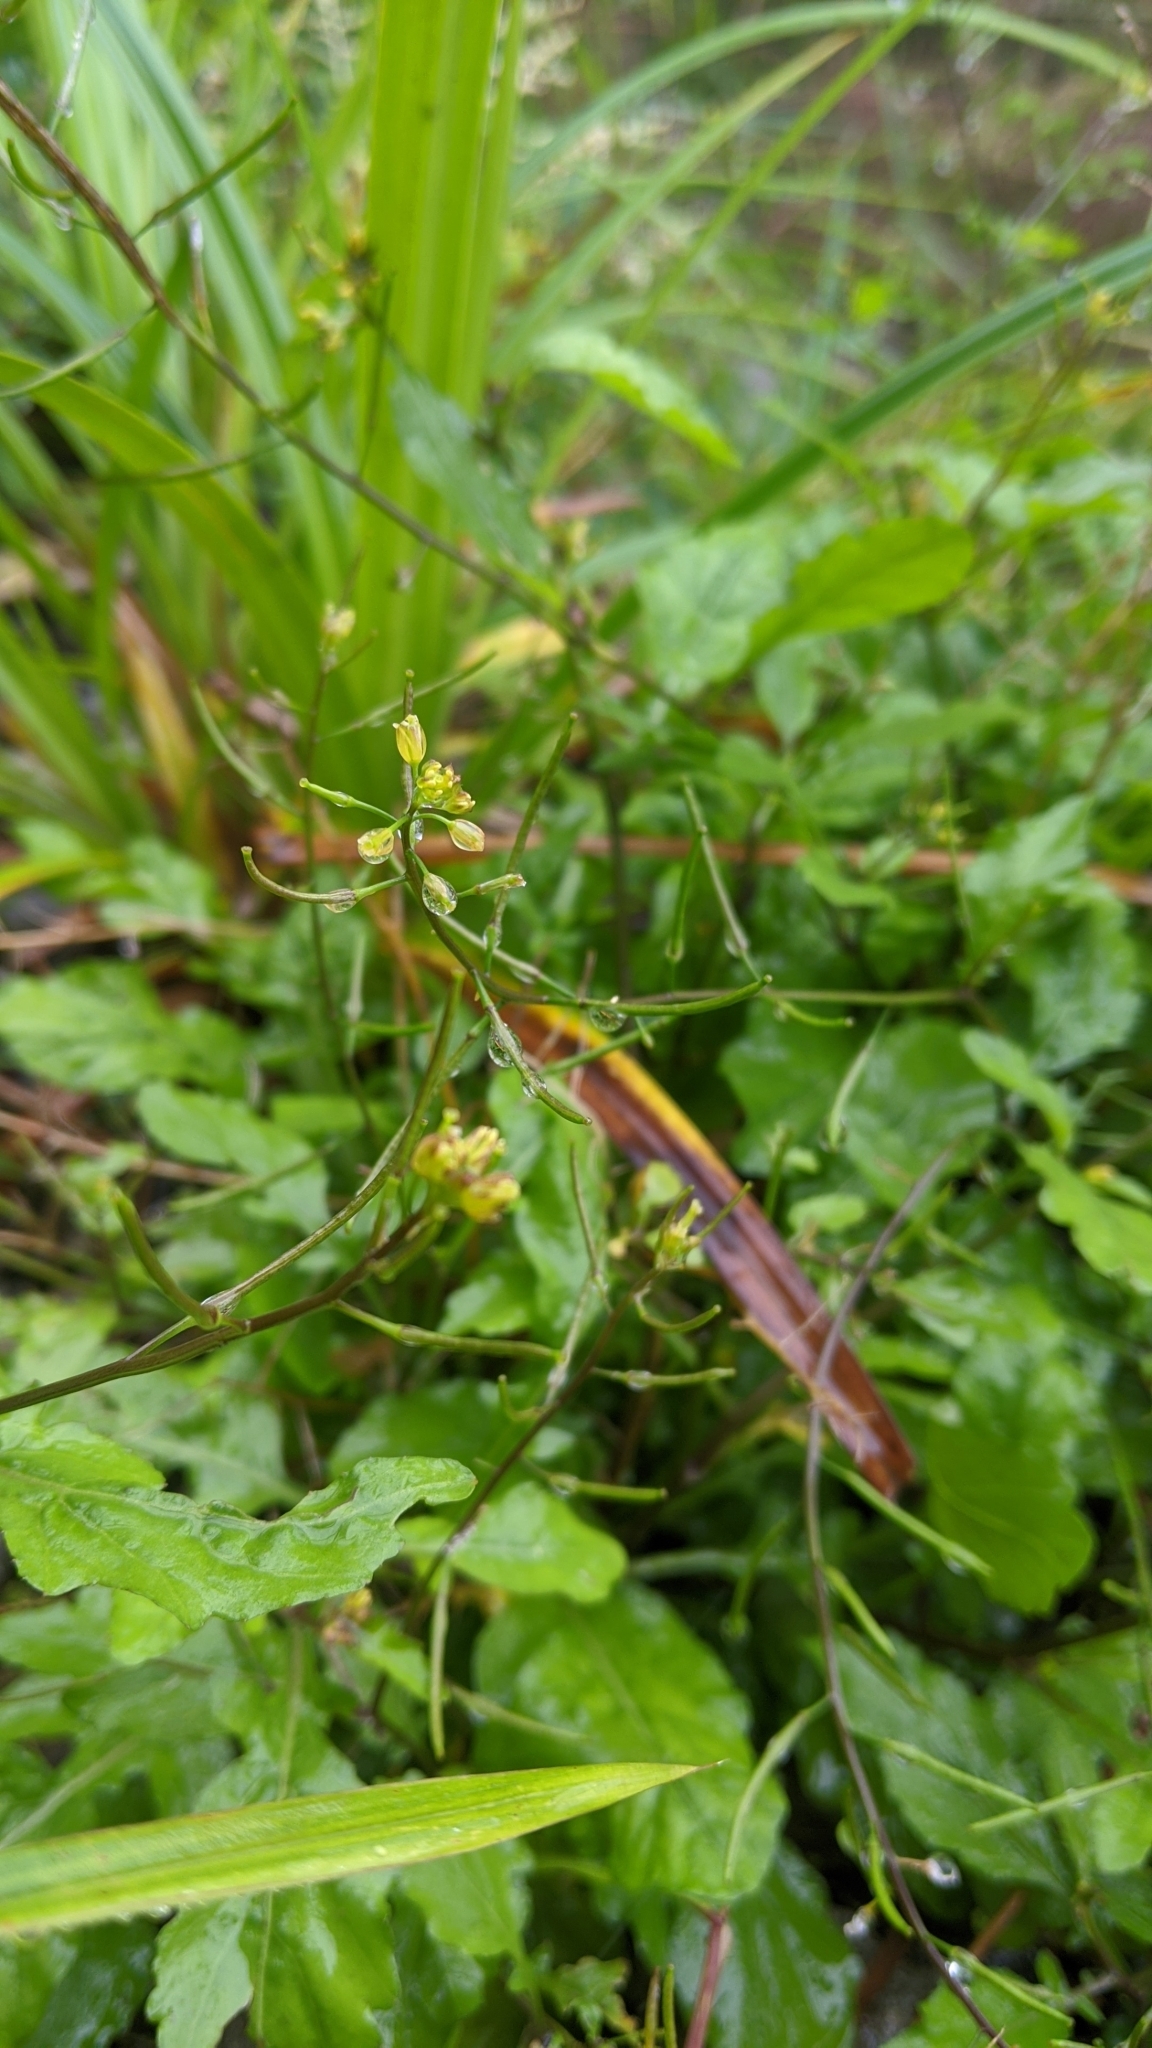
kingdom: Plantae
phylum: Tracheophyta
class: Magnoliopsida
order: Brassicales
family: Brassicaceae
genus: Rorippa
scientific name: Rorippa dubia
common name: Variableleaf yellowcress
